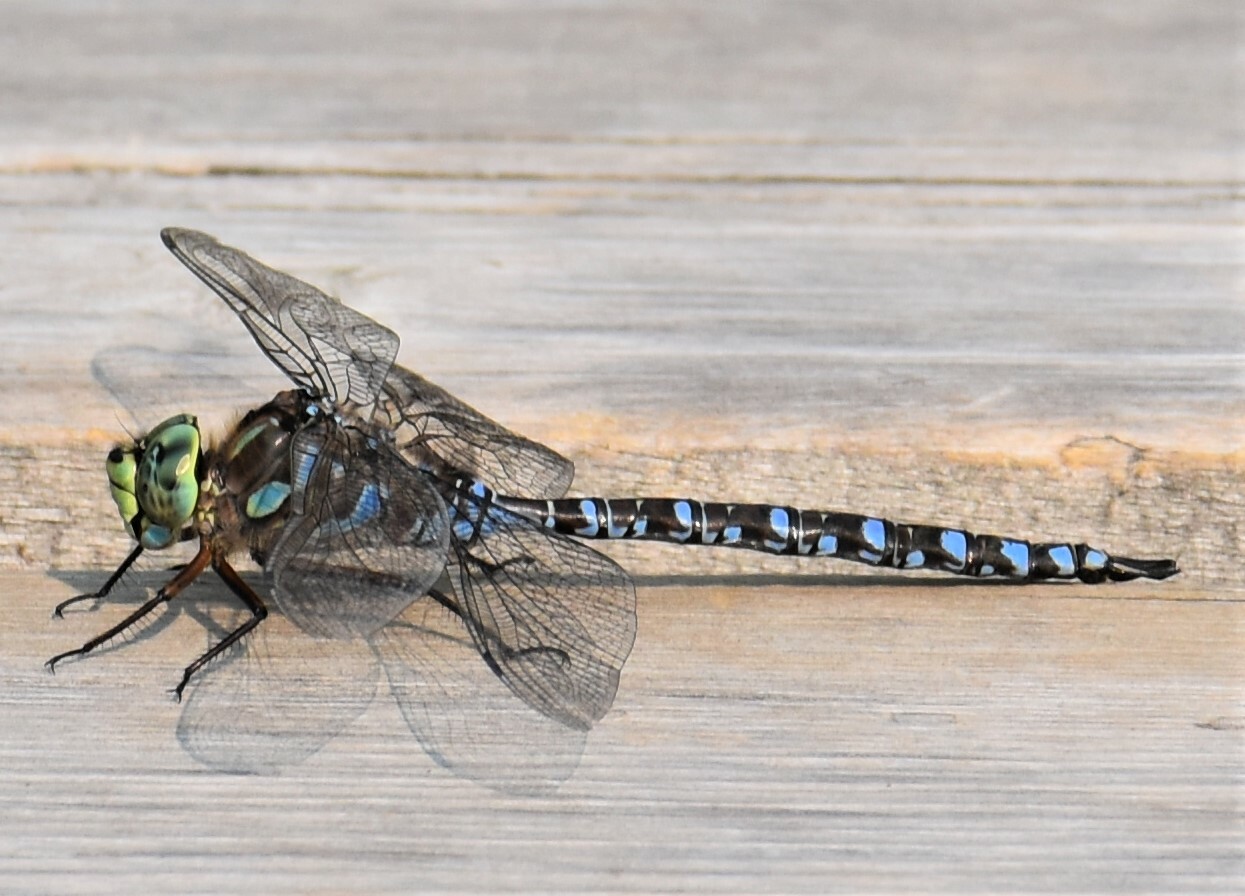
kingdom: Animalia
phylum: Arthropoda
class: Insecta
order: Odonata
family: Aeshnidae
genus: Aeshna
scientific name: Aeshna eremita
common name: Lake darner
